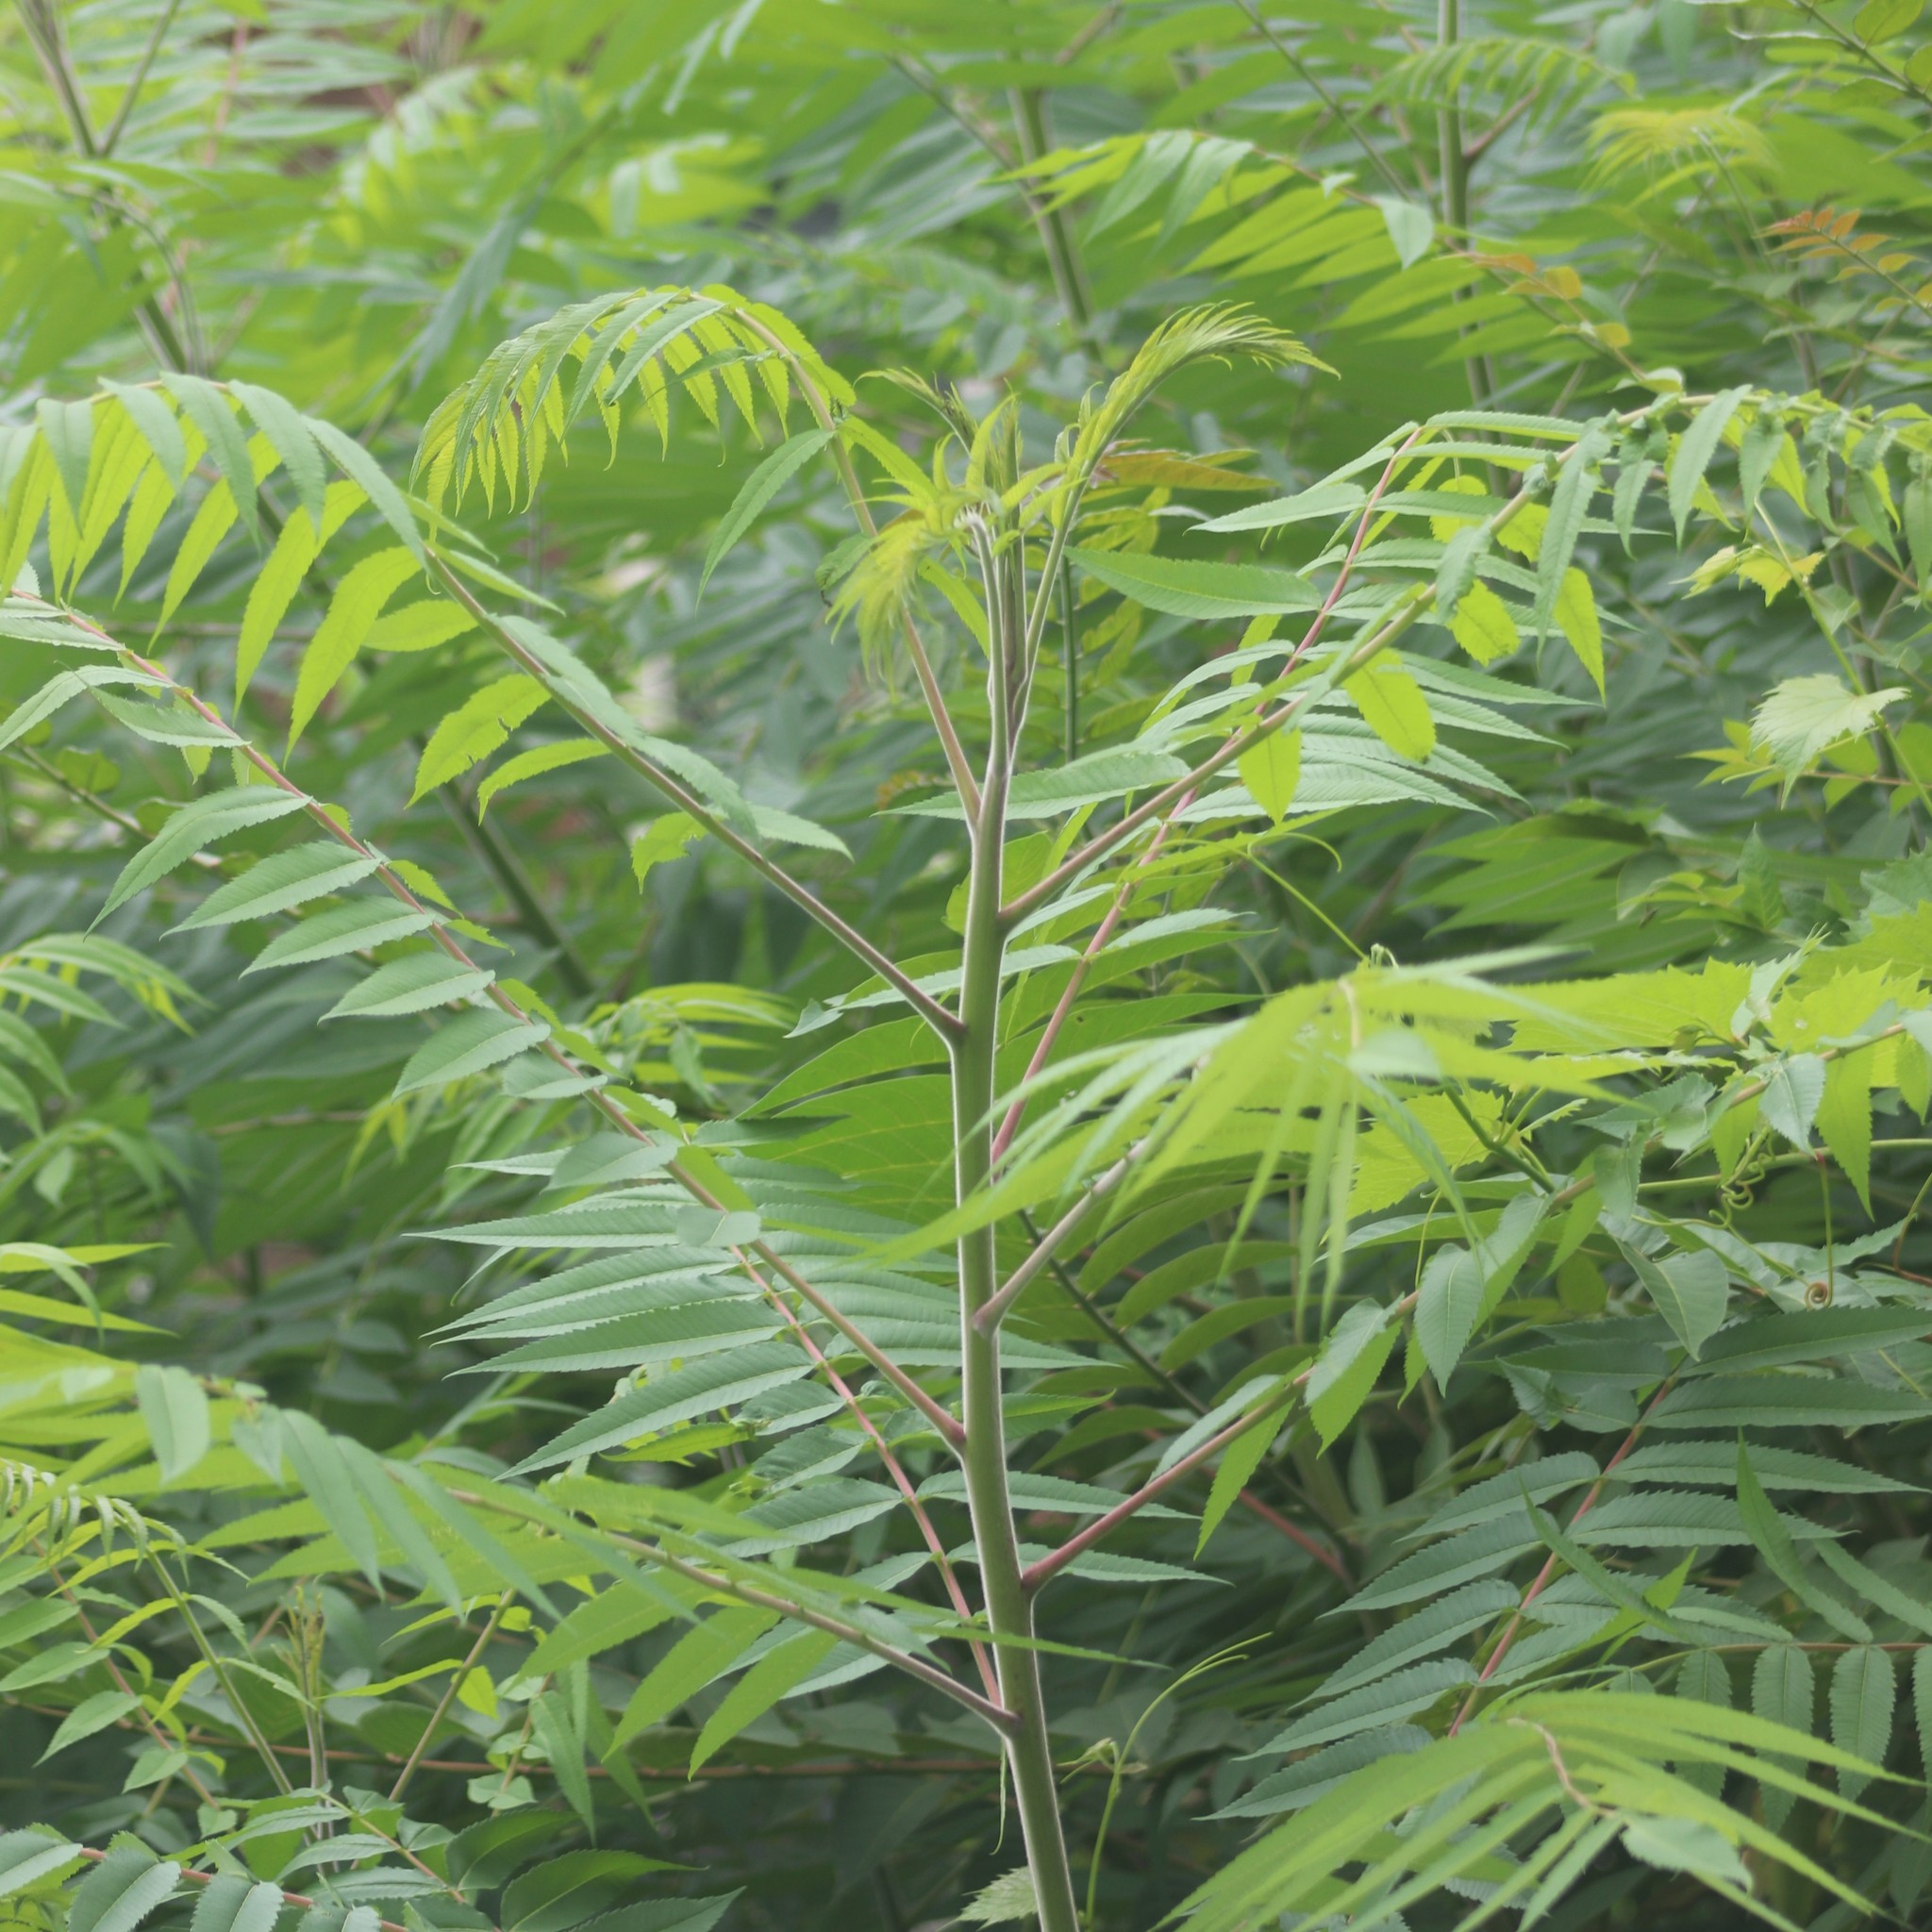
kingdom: Plantae
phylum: Tracheophyta
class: Magnoliopsida
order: Sapindales
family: Anacardiaceae
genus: Rhus
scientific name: Rhus typhina
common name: Staghorn sumac
